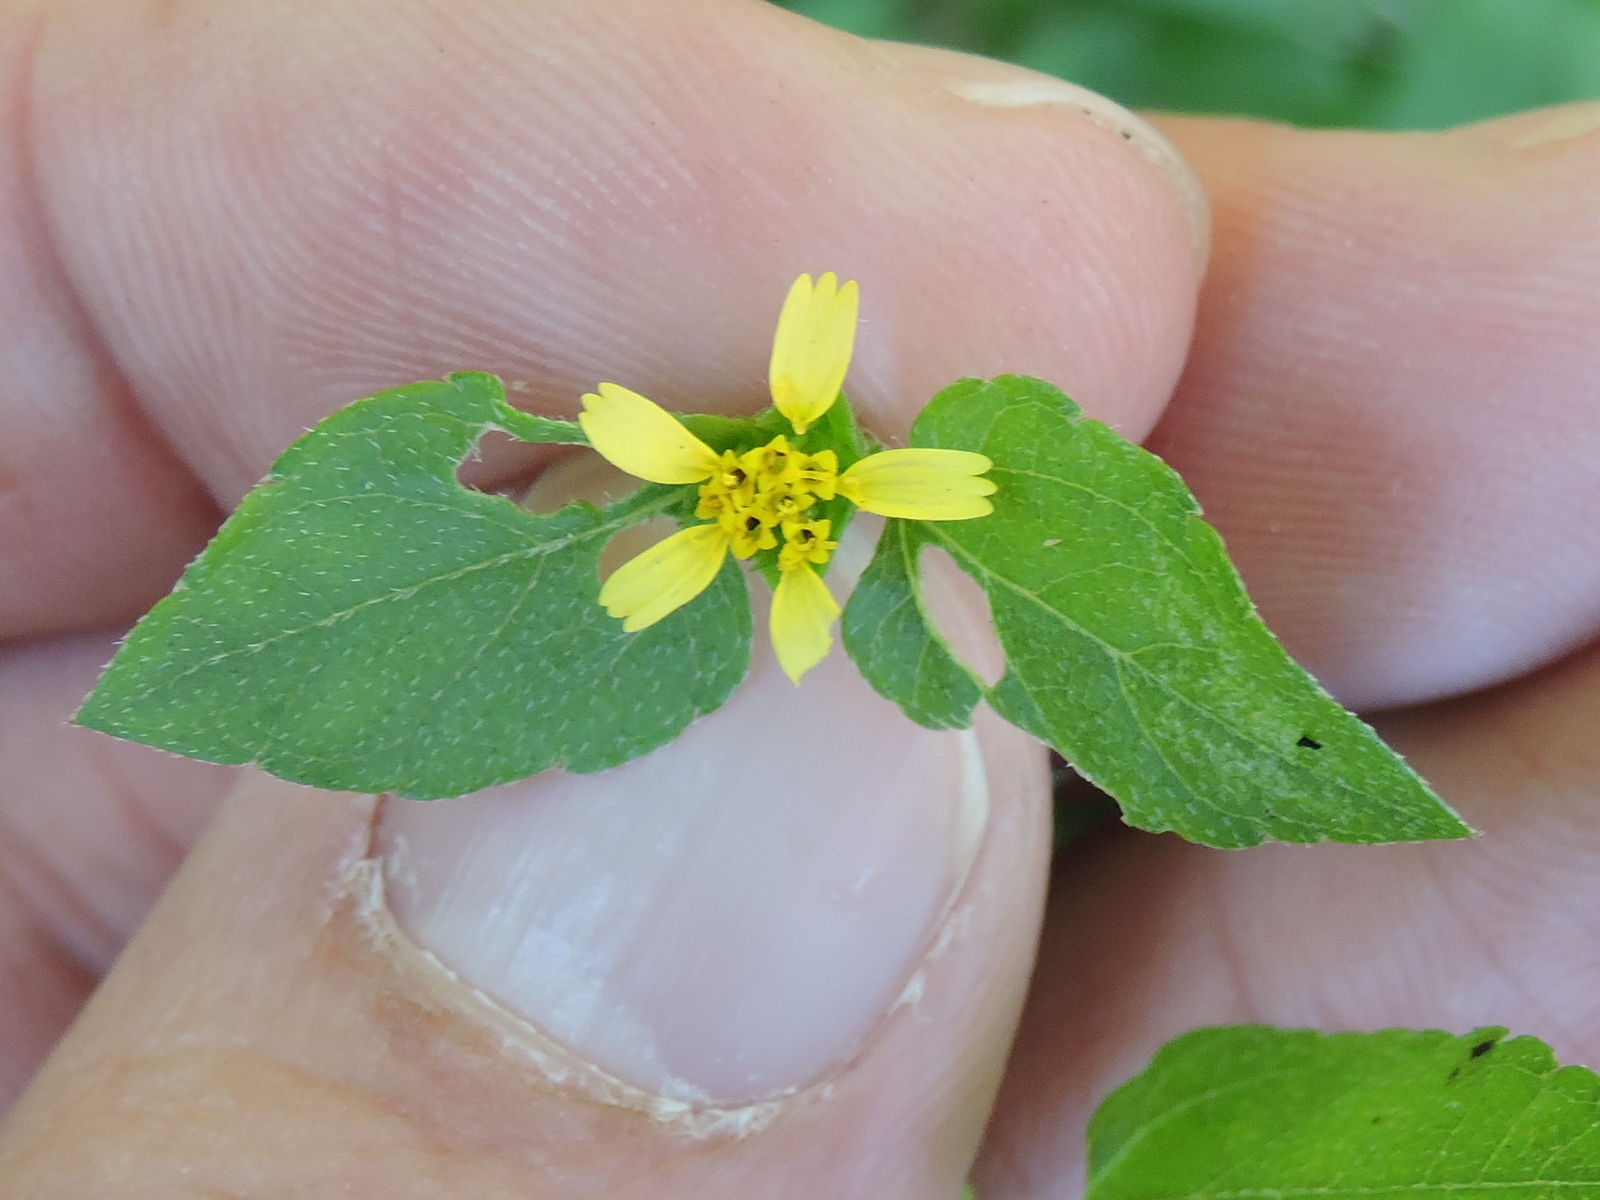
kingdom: Plantae
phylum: Tracheophyta
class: Magnoliopsida
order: Asterales
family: Asteraceae
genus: Calyptocarpus
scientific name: Calyptocarpus vialis
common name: Straggler daisy
